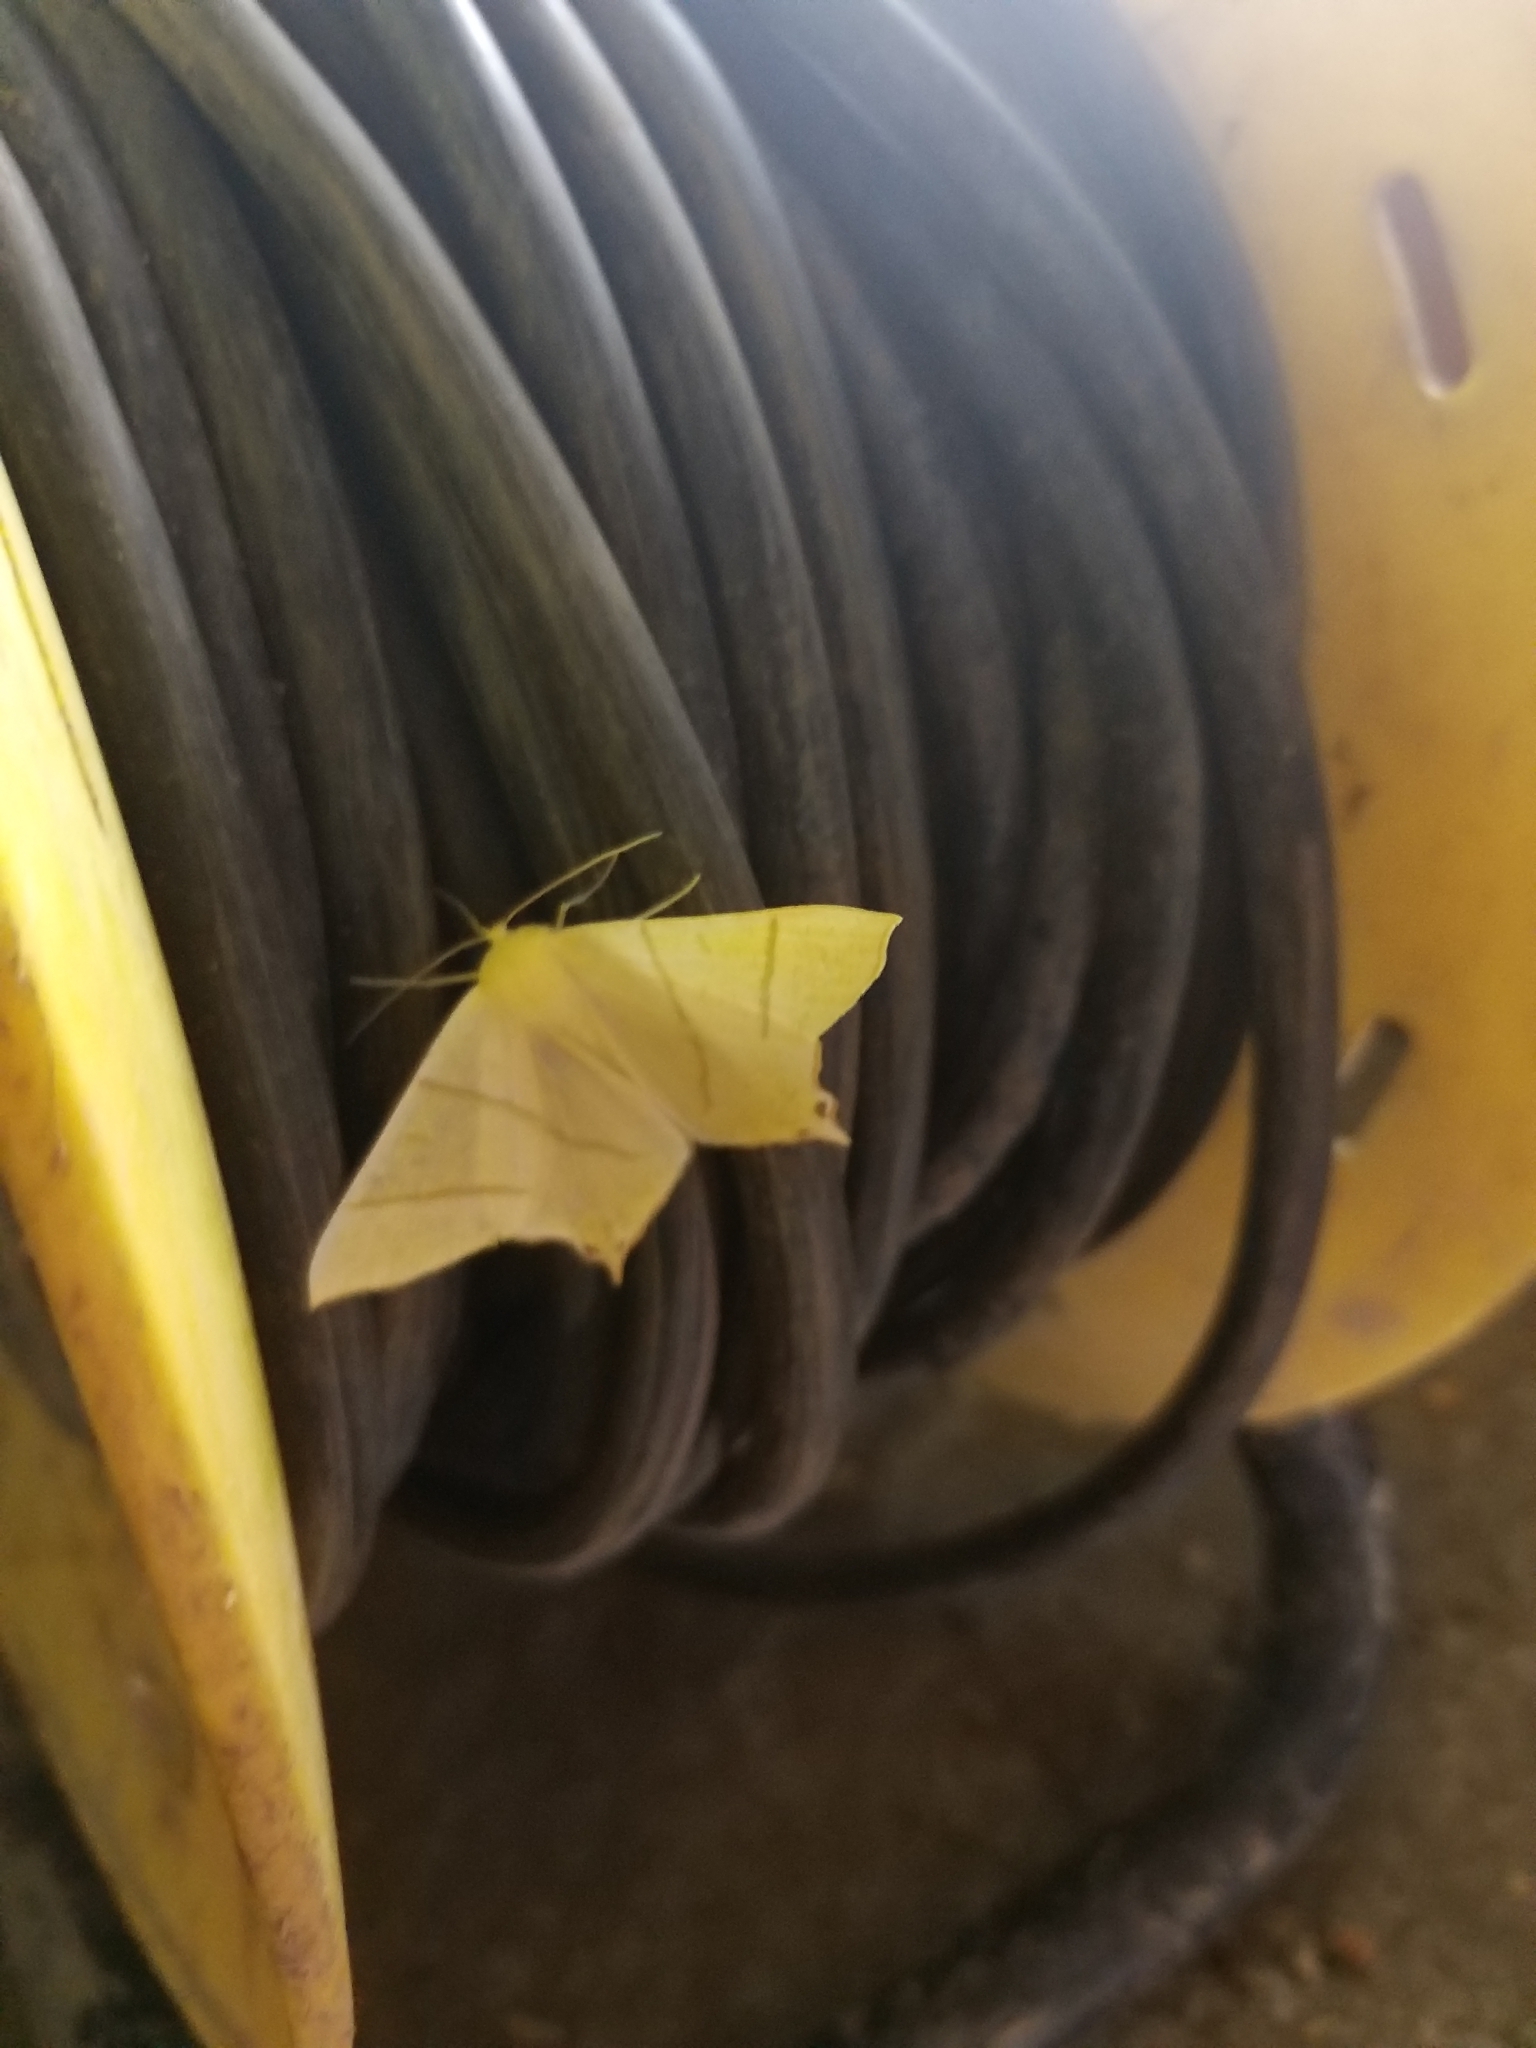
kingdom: Animalia
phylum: Arthropoda
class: Insecta
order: Lepidoptera
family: Geometridae
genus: Ourapteryx
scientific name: Ourapteryx sambucaria
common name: Swallow-tailed moth
